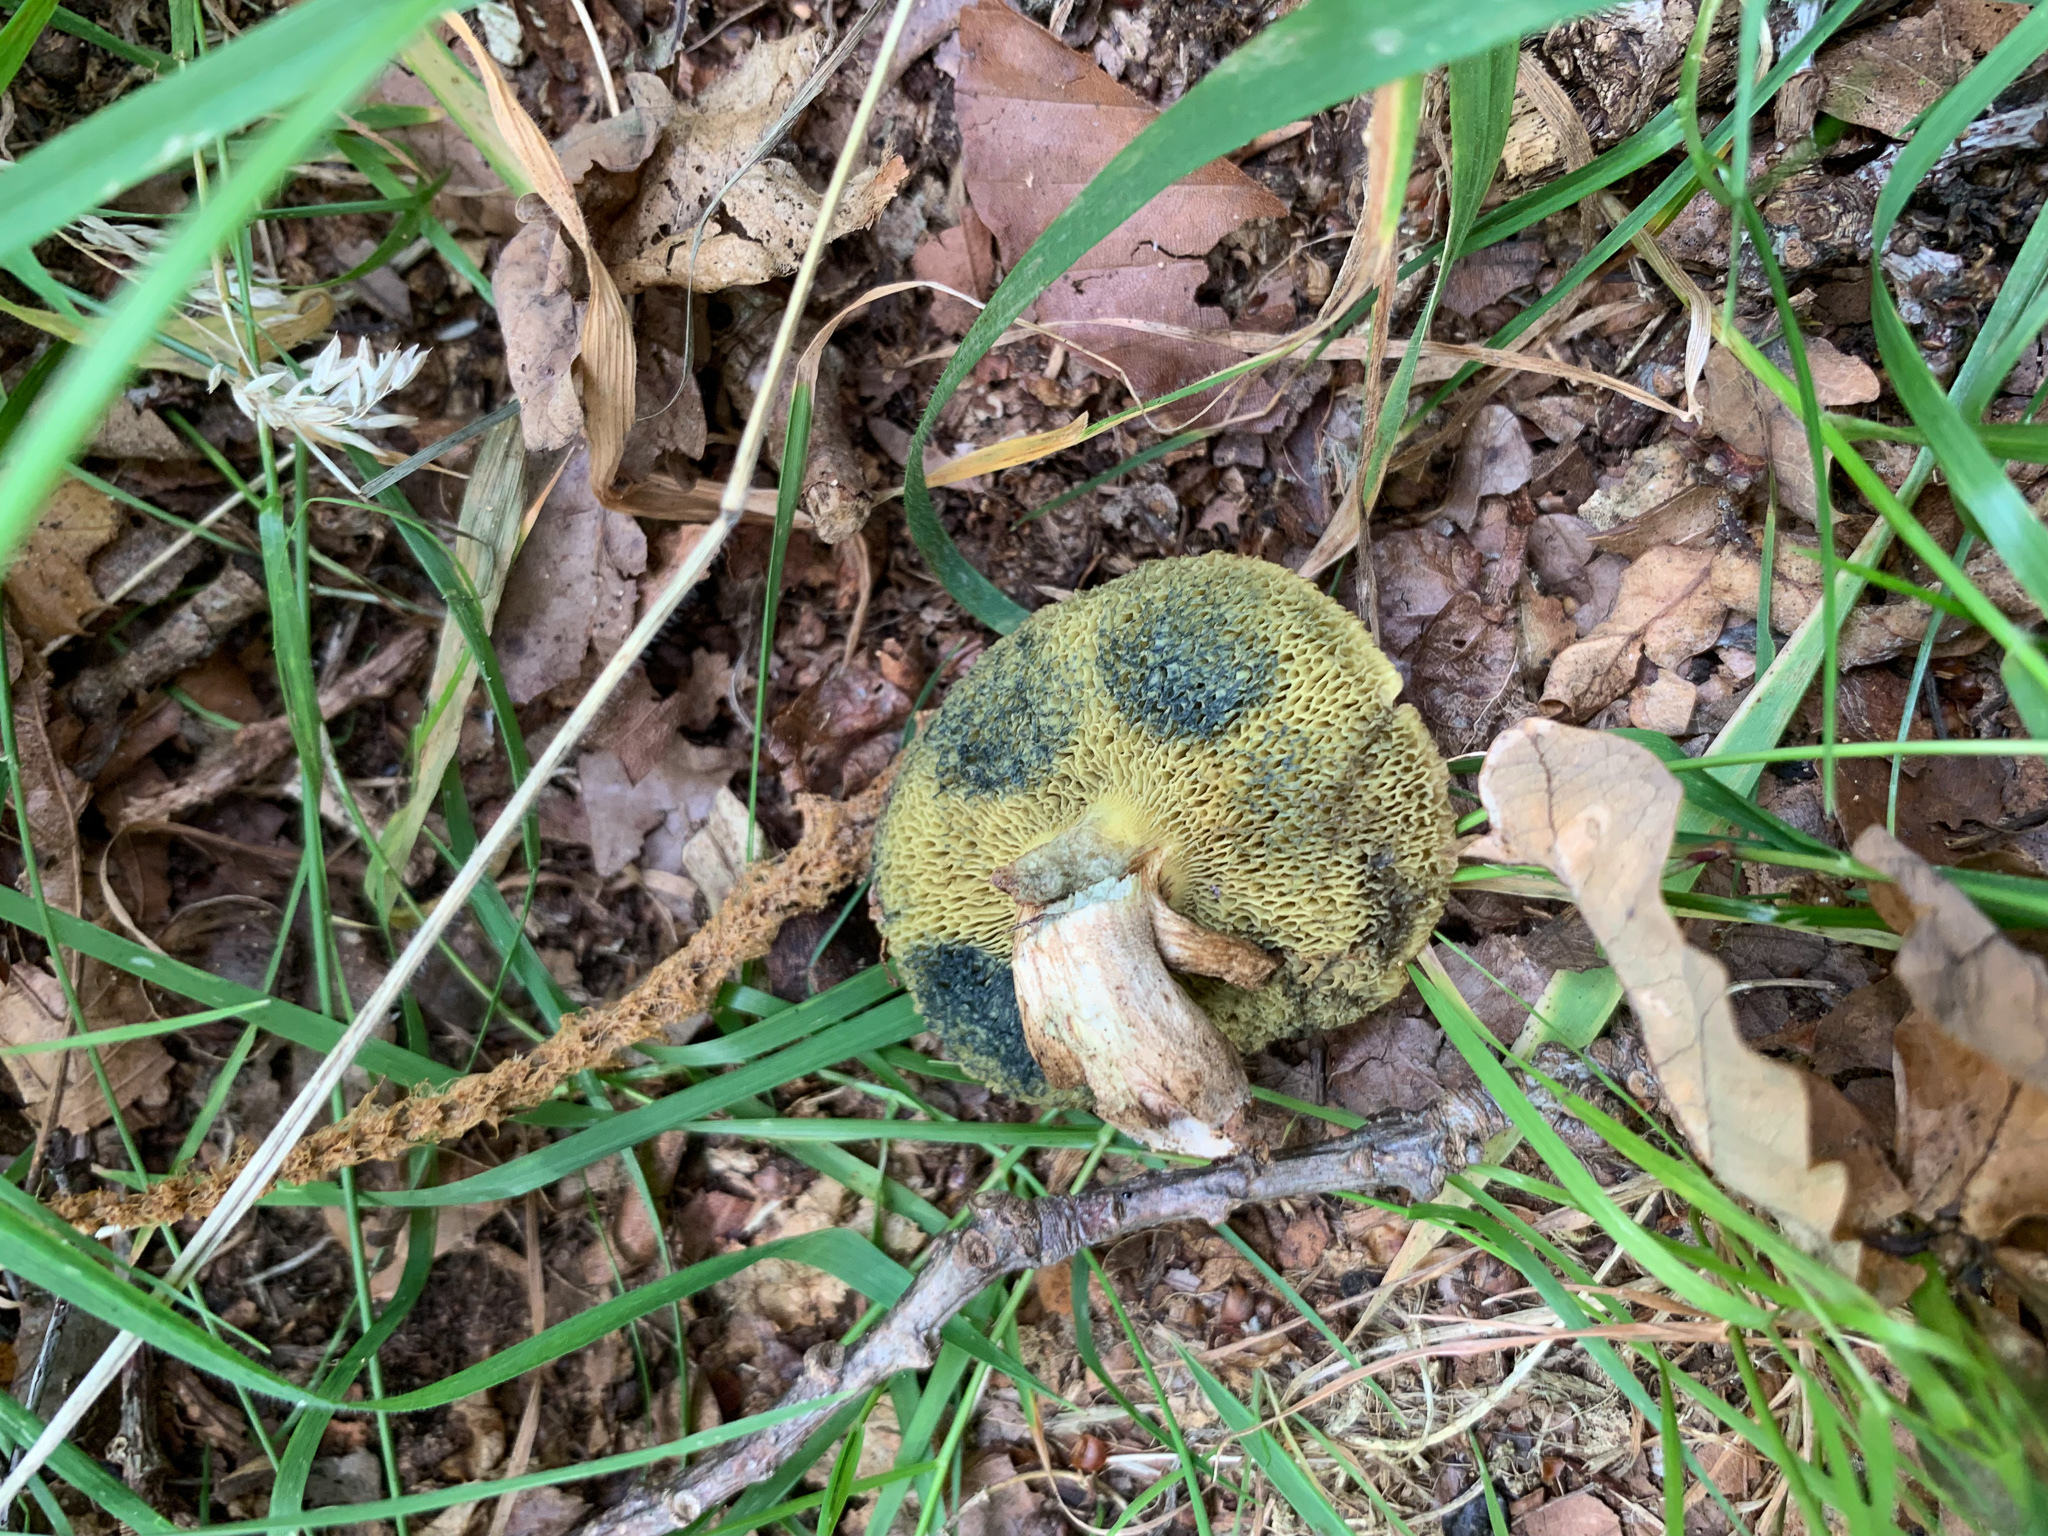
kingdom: Fungi
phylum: Basidiomycota
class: Agaricomycetes
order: Boletales
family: Boletaceae
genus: Xerocomellus
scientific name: Xerocomellus chrysenteron
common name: Red-cracking bolete
